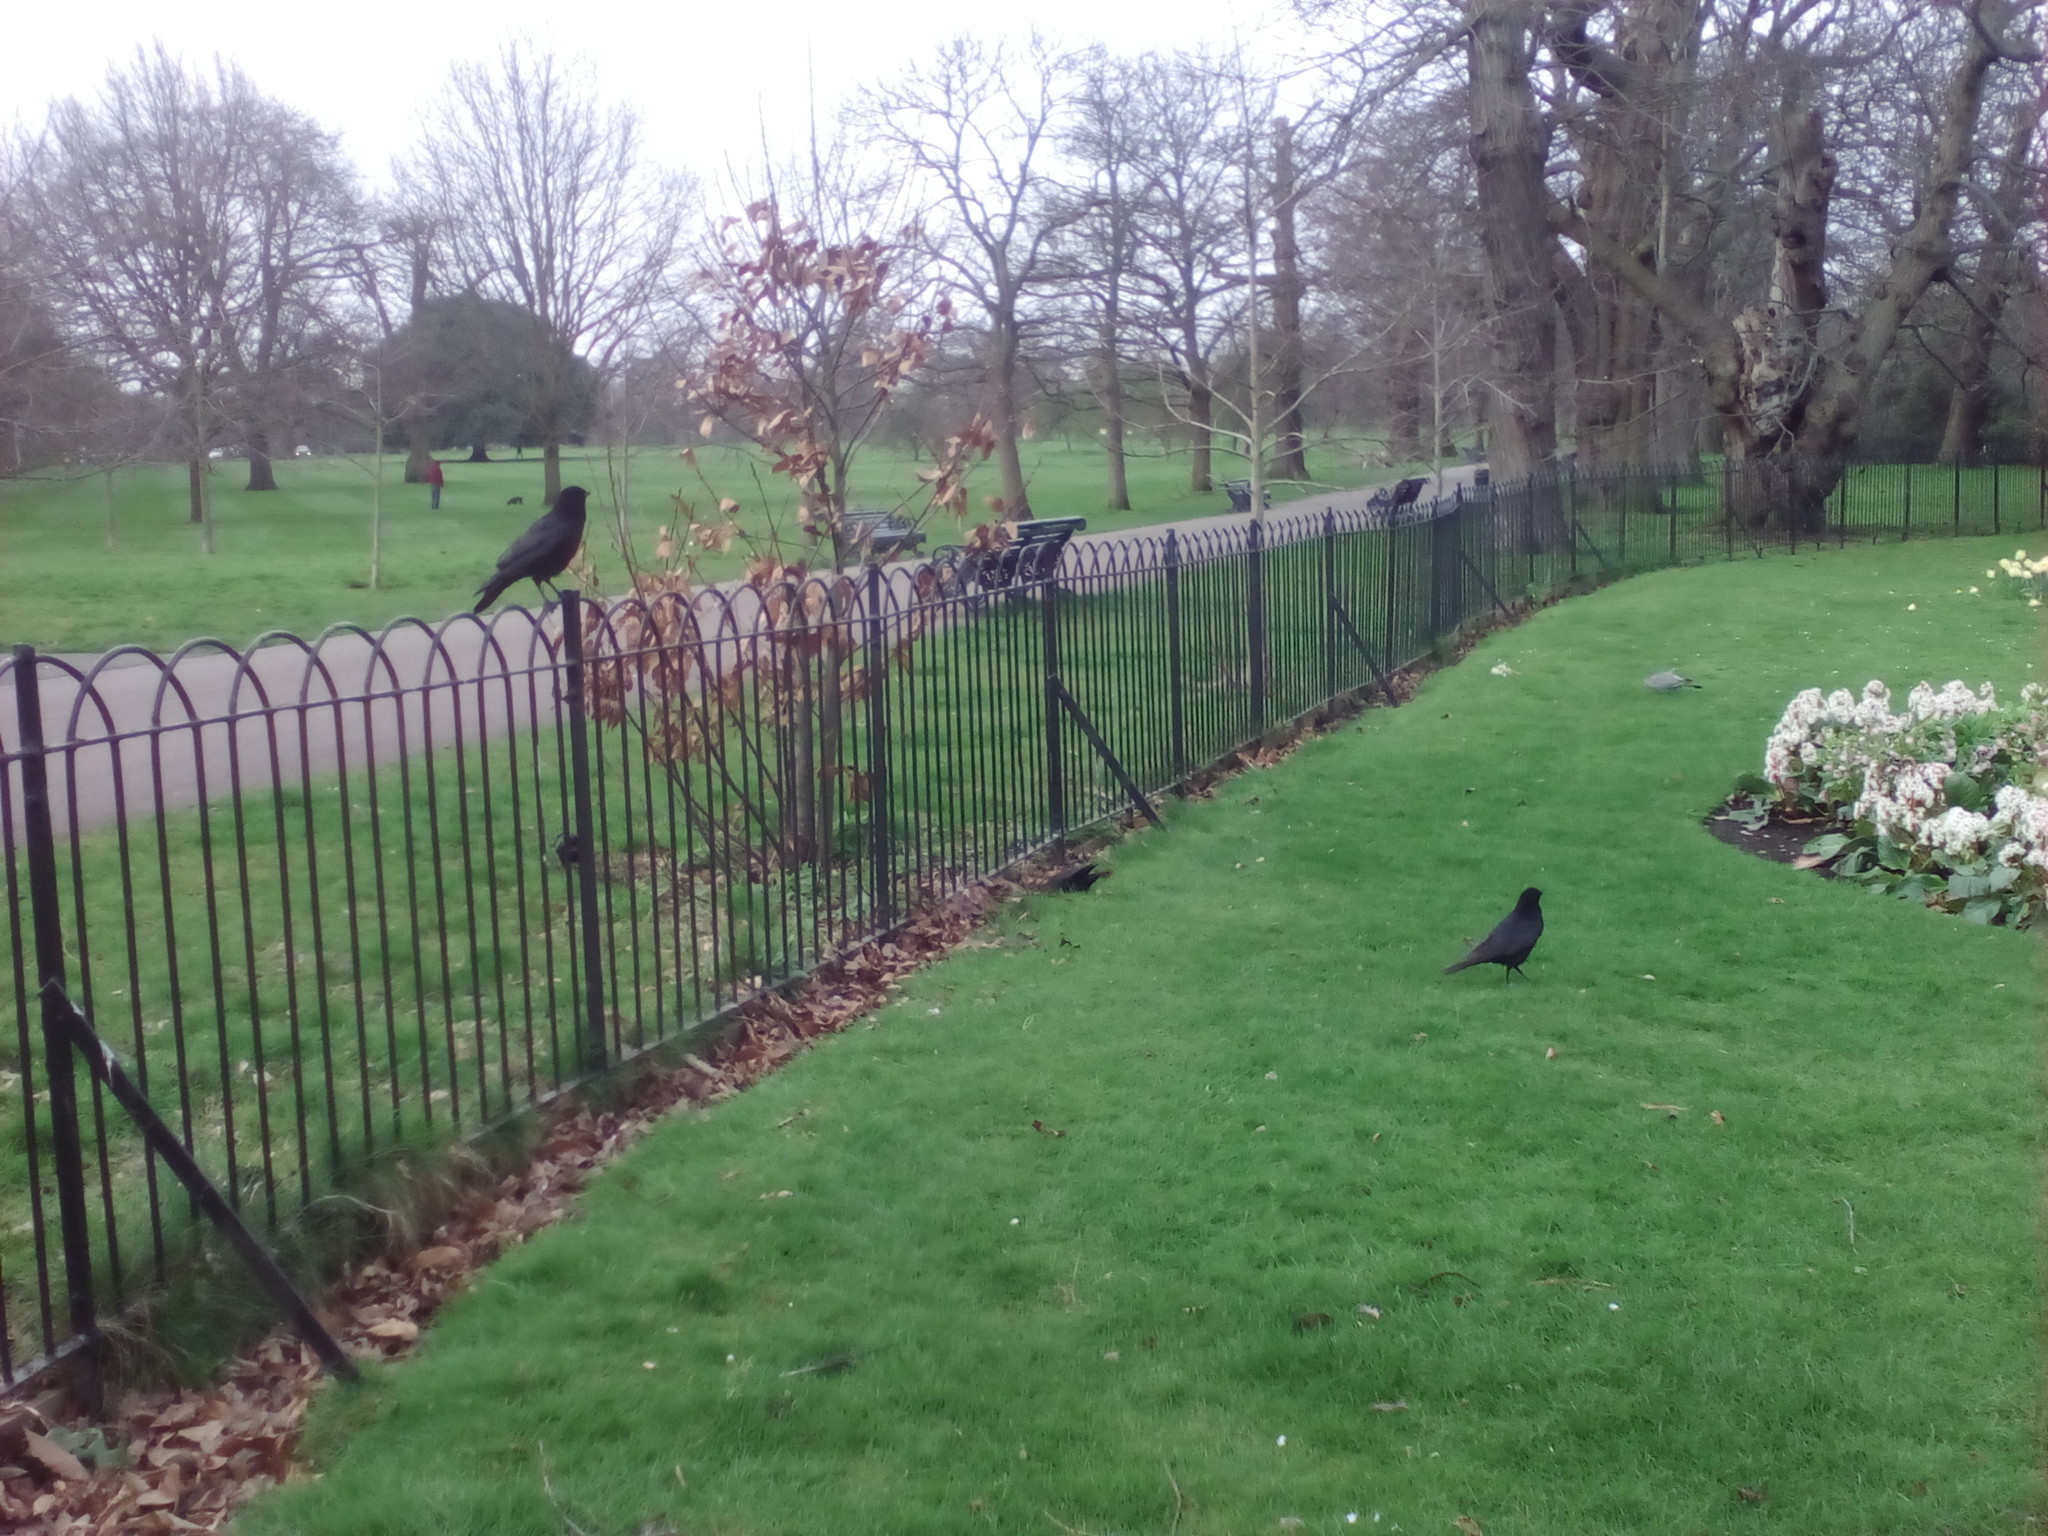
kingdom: Animalia
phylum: Chordata
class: Aves
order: Passeriformes
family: Corvidae
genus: Corvus
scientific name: Corvus corone
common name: Carrion crow
